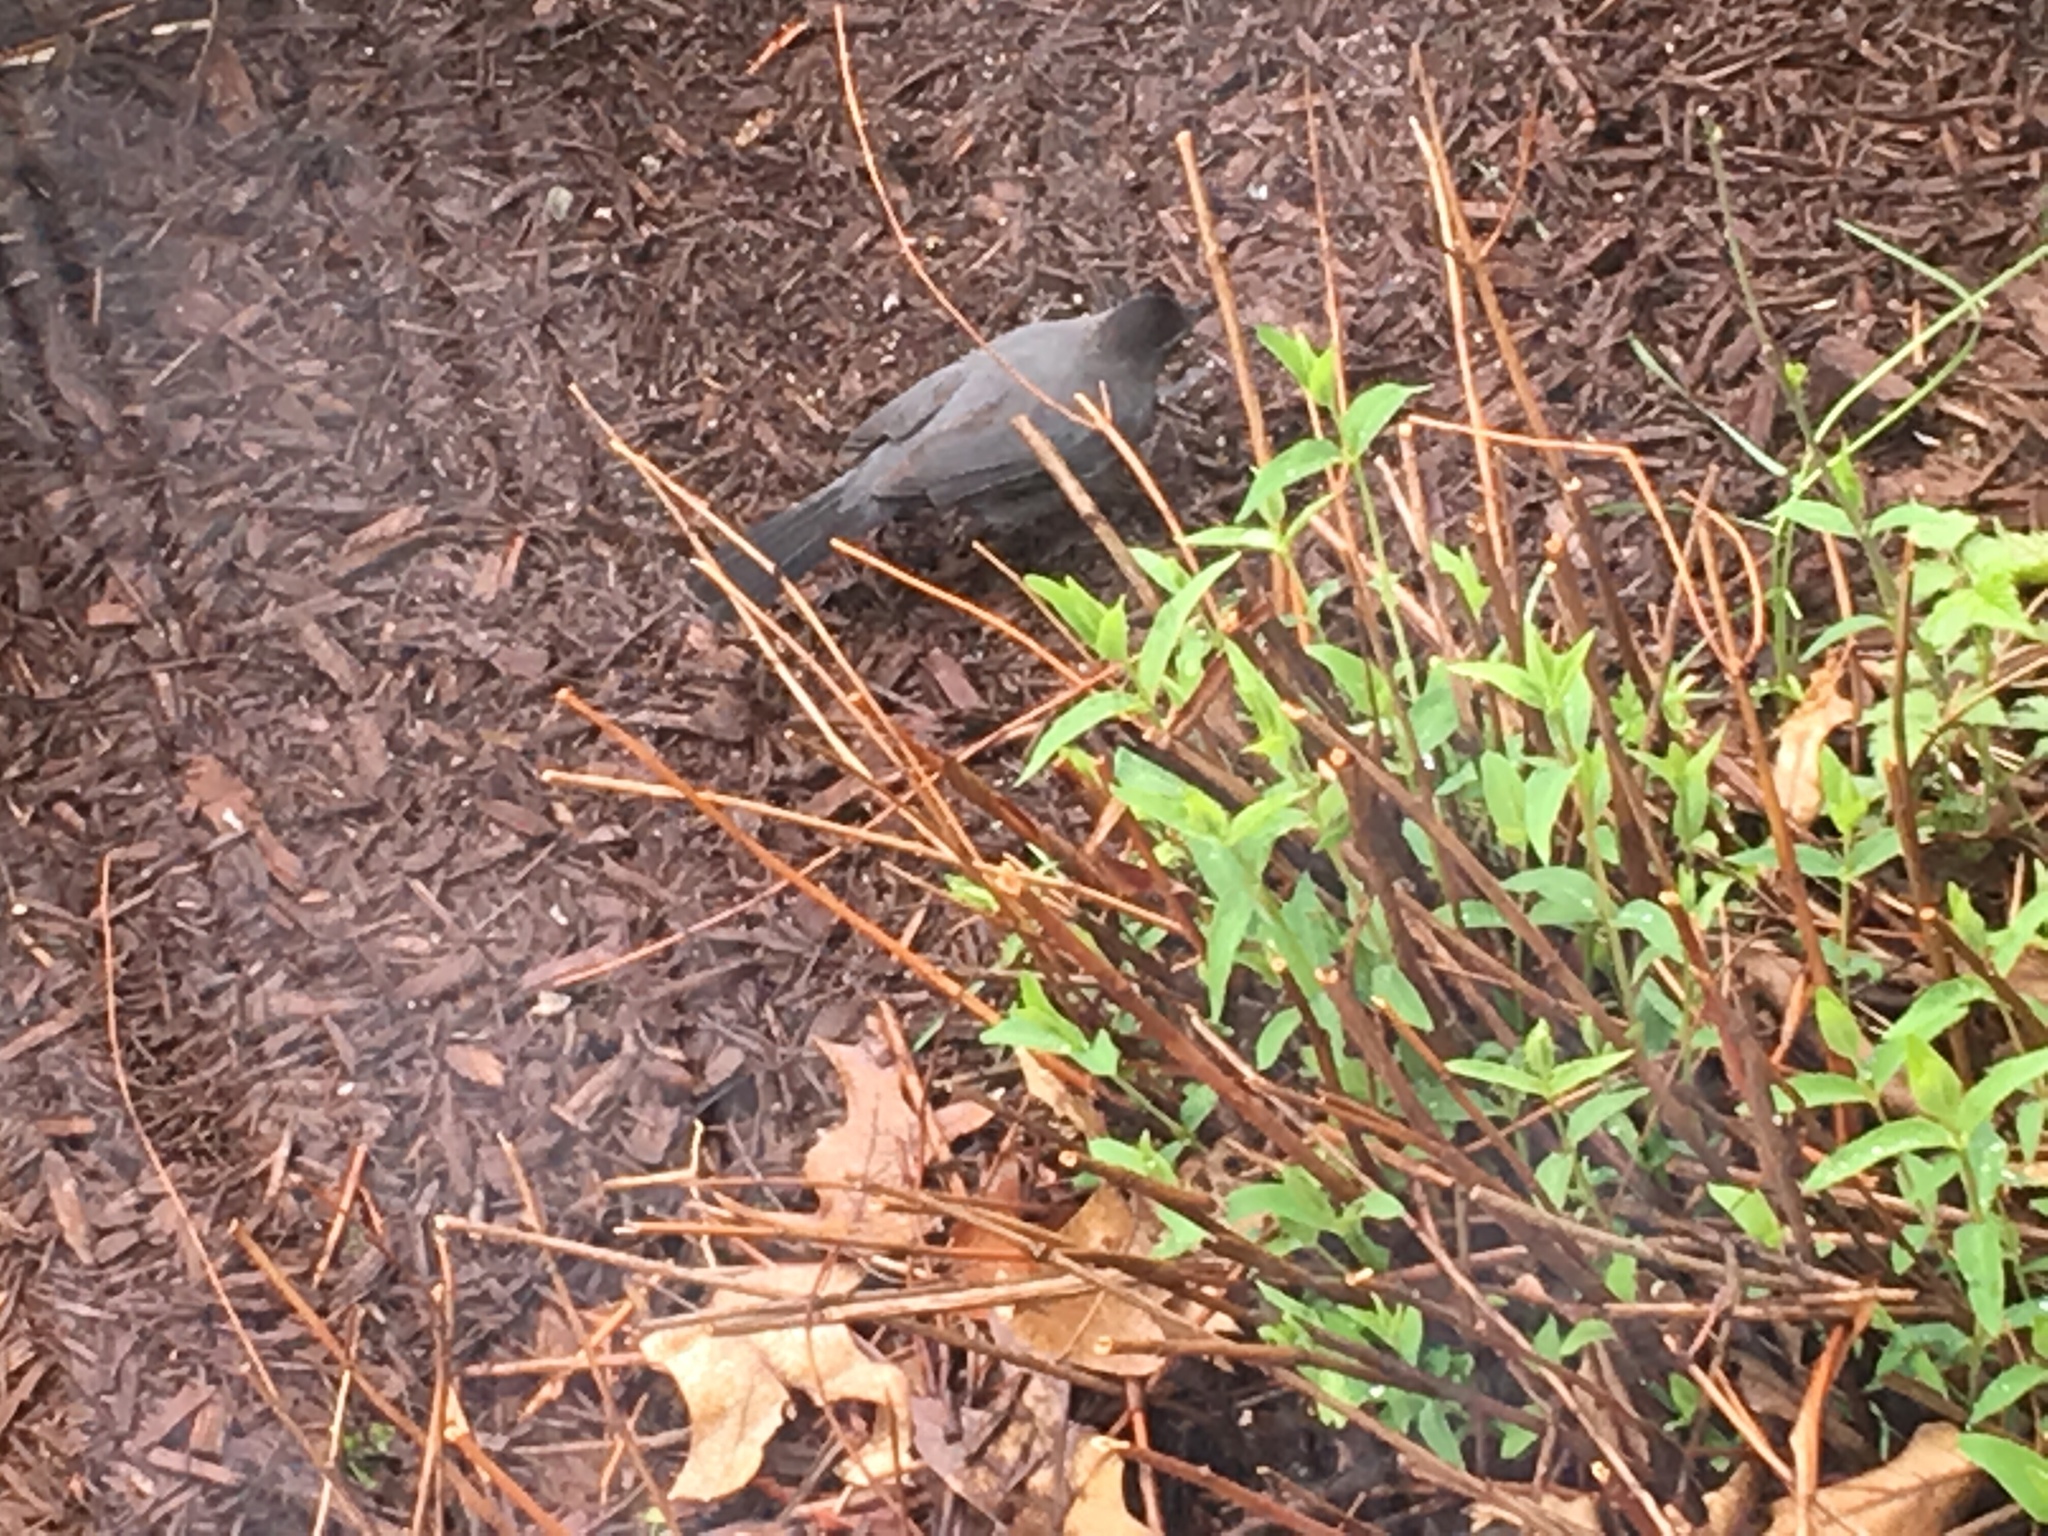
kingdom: Animalia
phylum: Chordata
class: Aves
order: Passeriformes
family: Mimidae
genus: Dumetella
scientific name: Dumetella carolinensis
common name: Gray catbird
